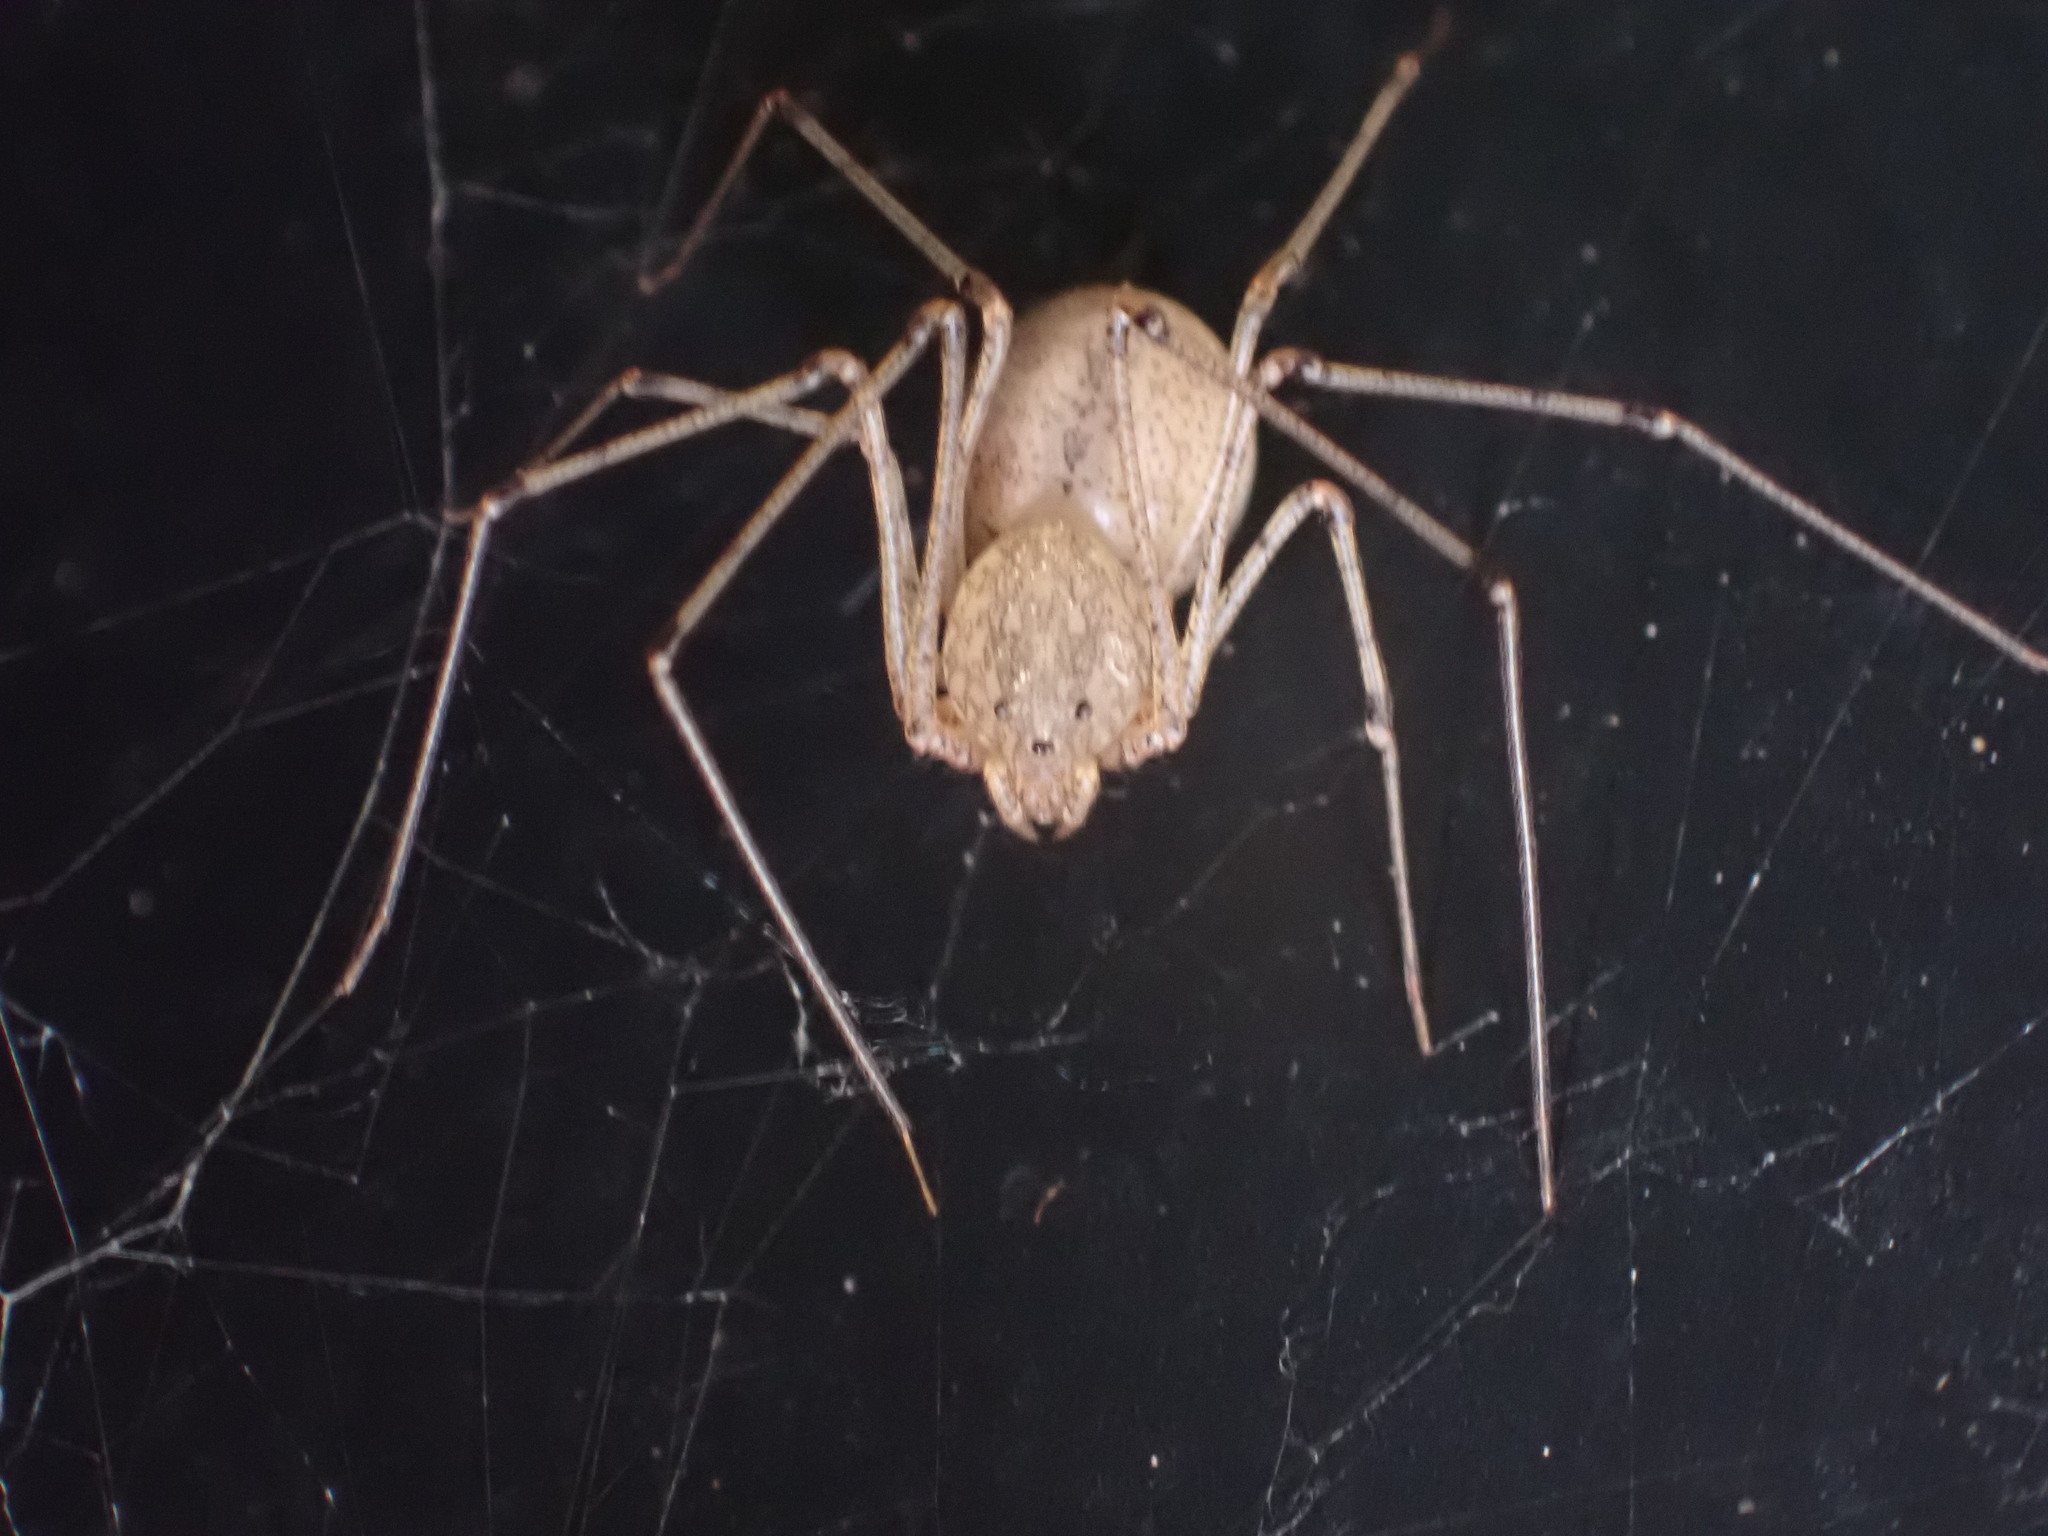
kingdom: Animalia
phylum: Arthropoda
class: Arachnida
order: Araneae
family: Scytodidae
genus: Scytodes
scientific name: Scytodes atlacoya
